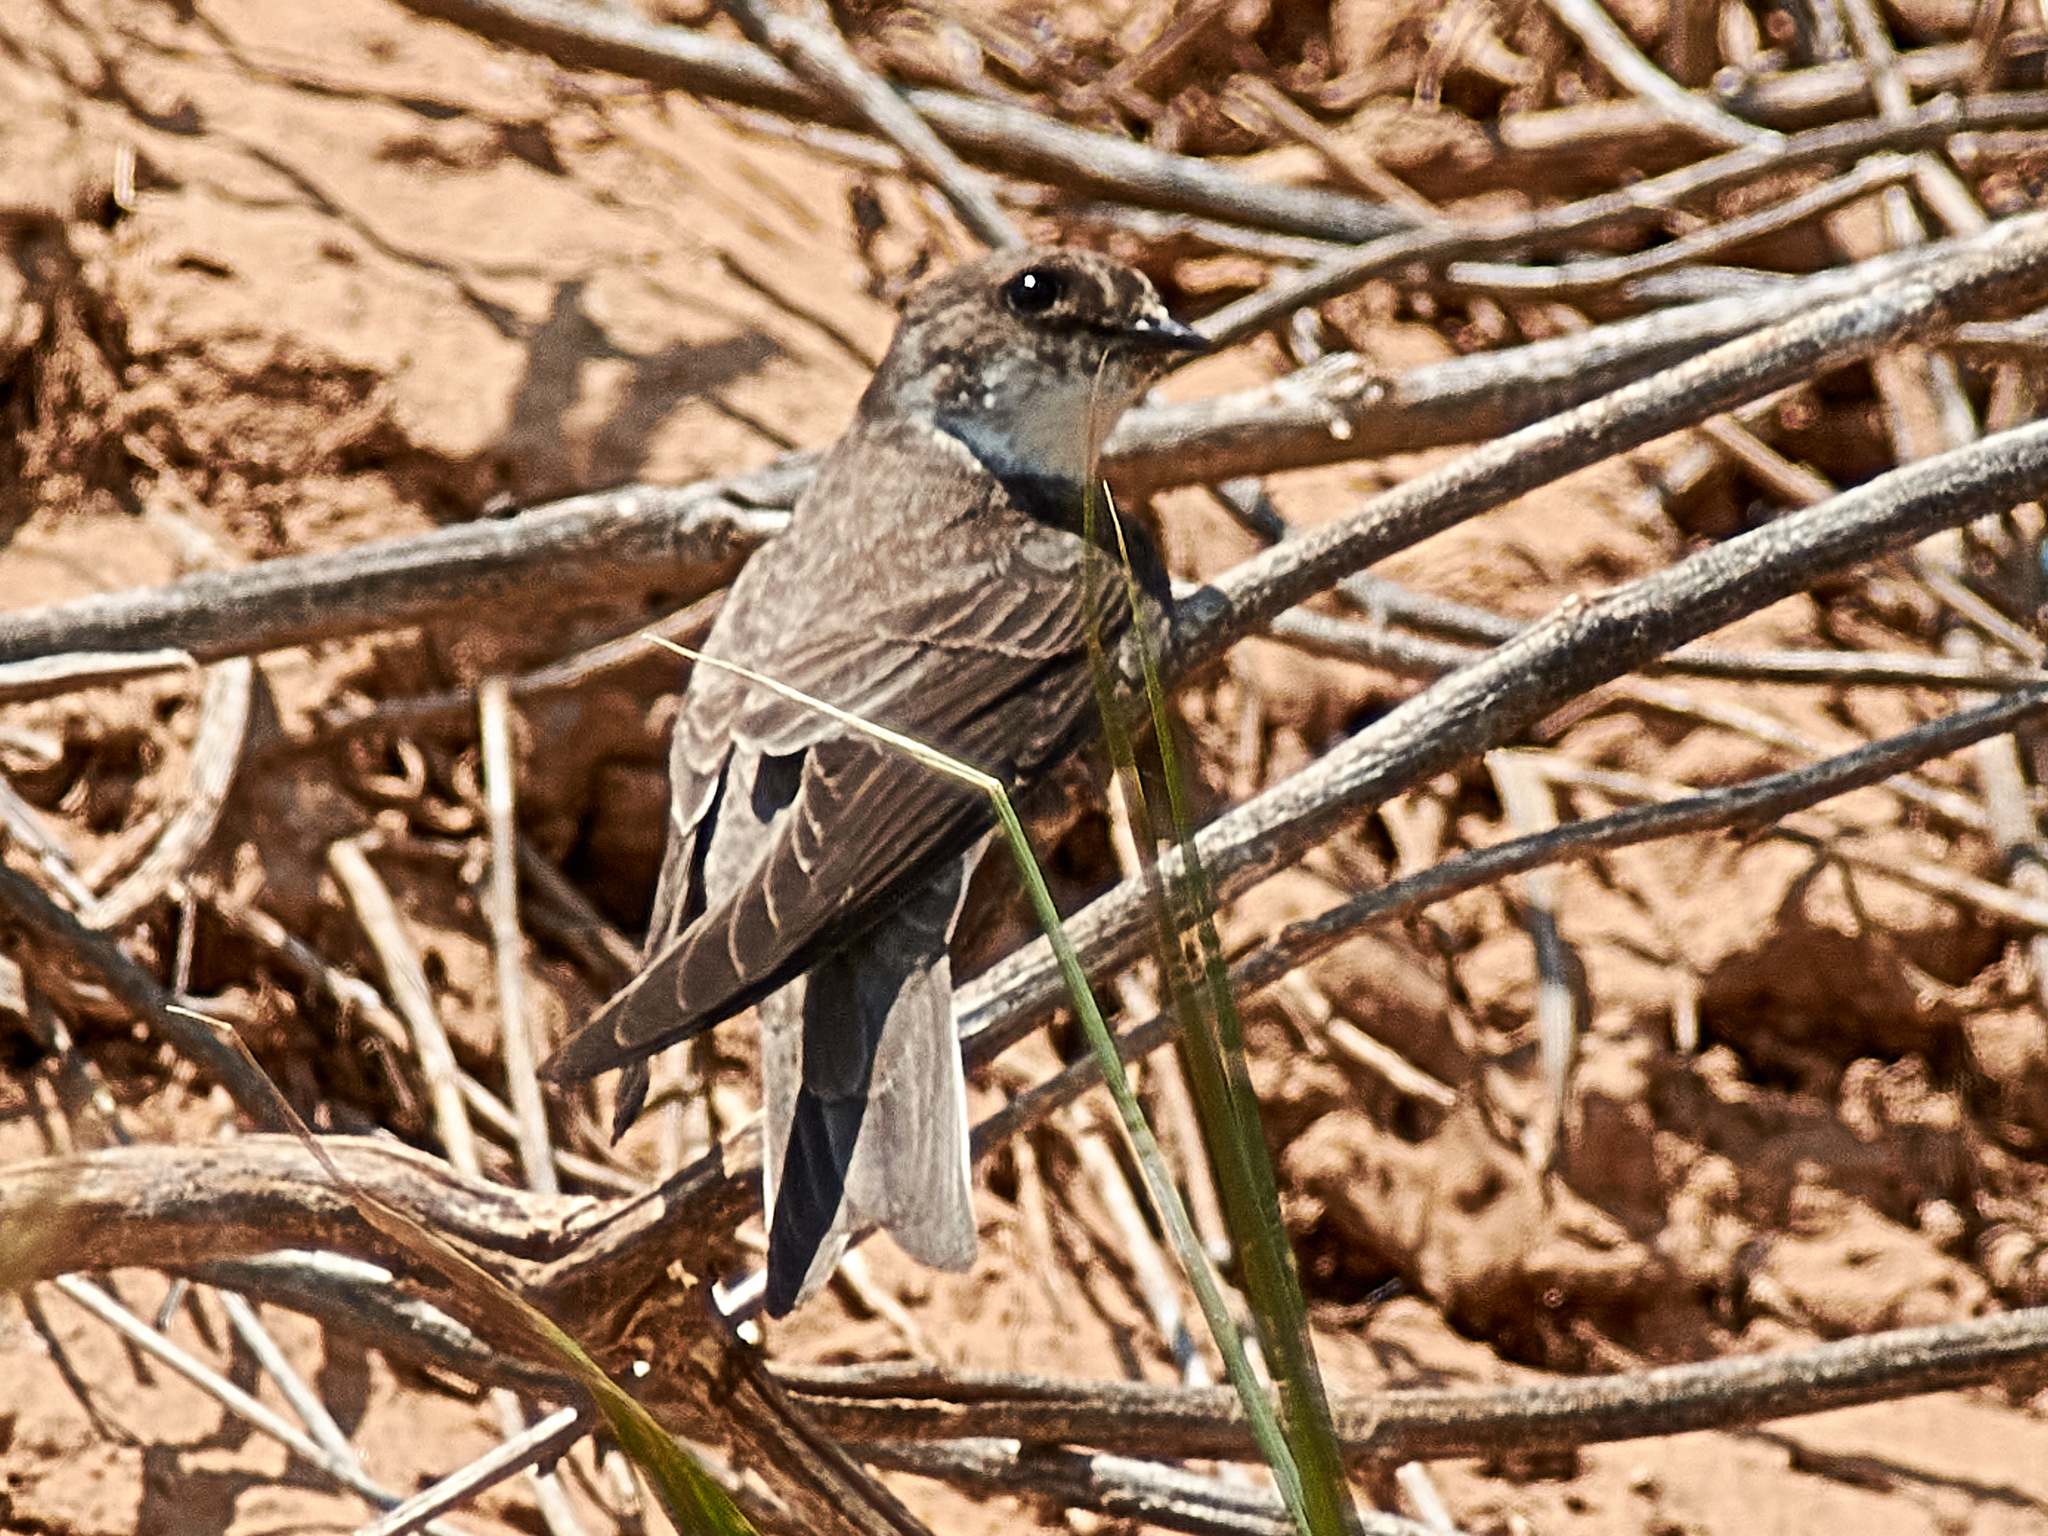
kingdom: Animalia
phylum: Chordata
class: Aves
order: Passeriformes
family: Hirundinidae
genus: Riparia
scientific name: Riparia riparia
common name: Sand martin
